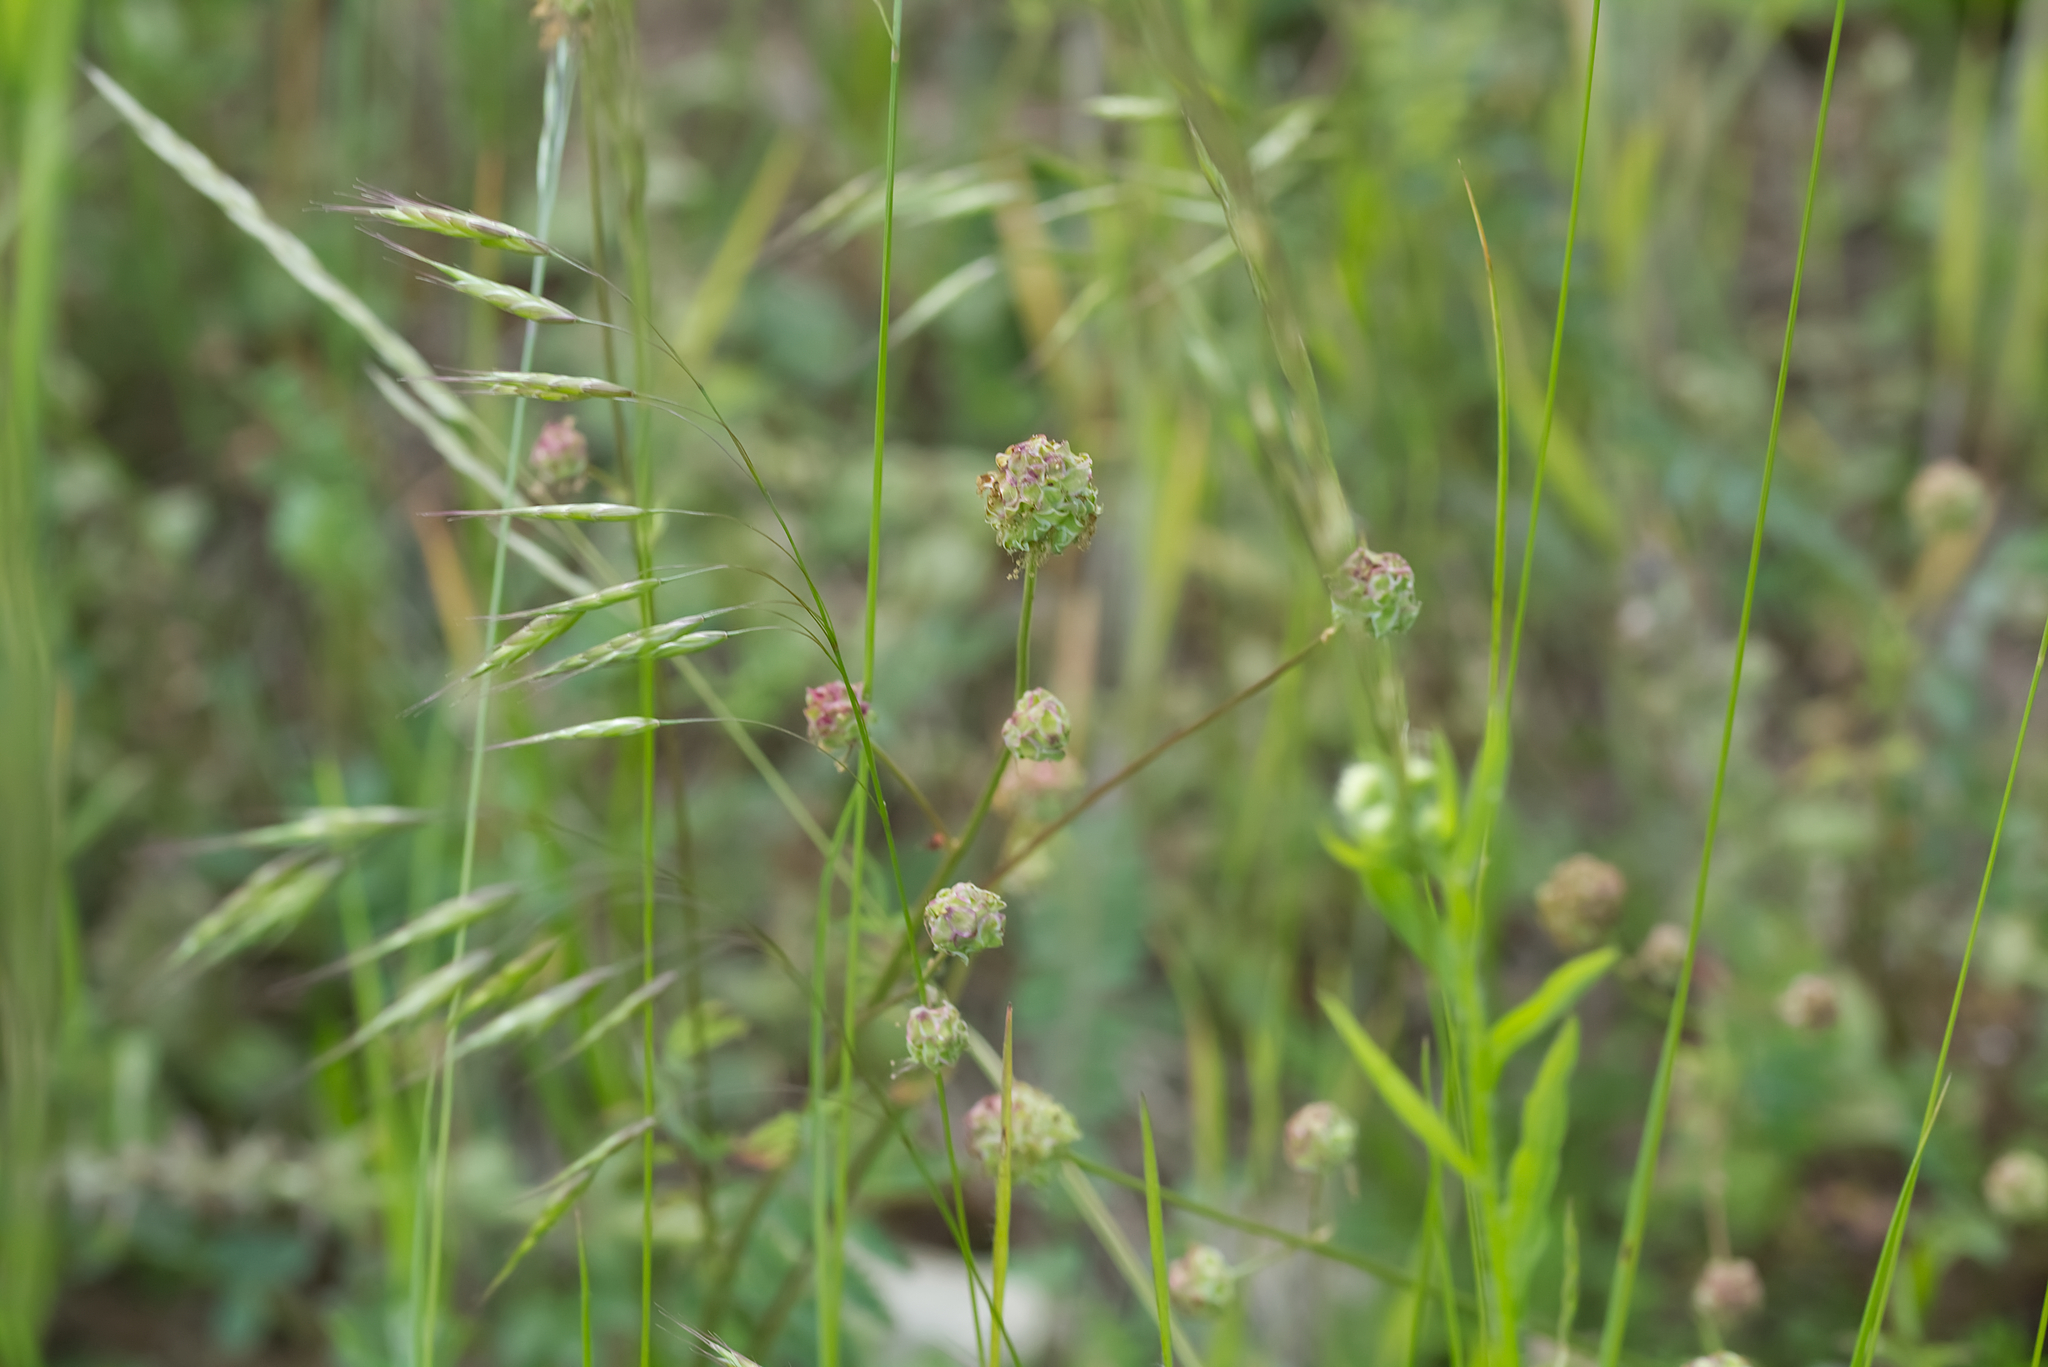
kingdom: Plantae
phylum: Tracheophyta
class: Magnoliopsida
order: Rosales
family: Rosaceae
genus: Poterium
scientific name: Poterium sanguisorba
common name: Salad burnet
